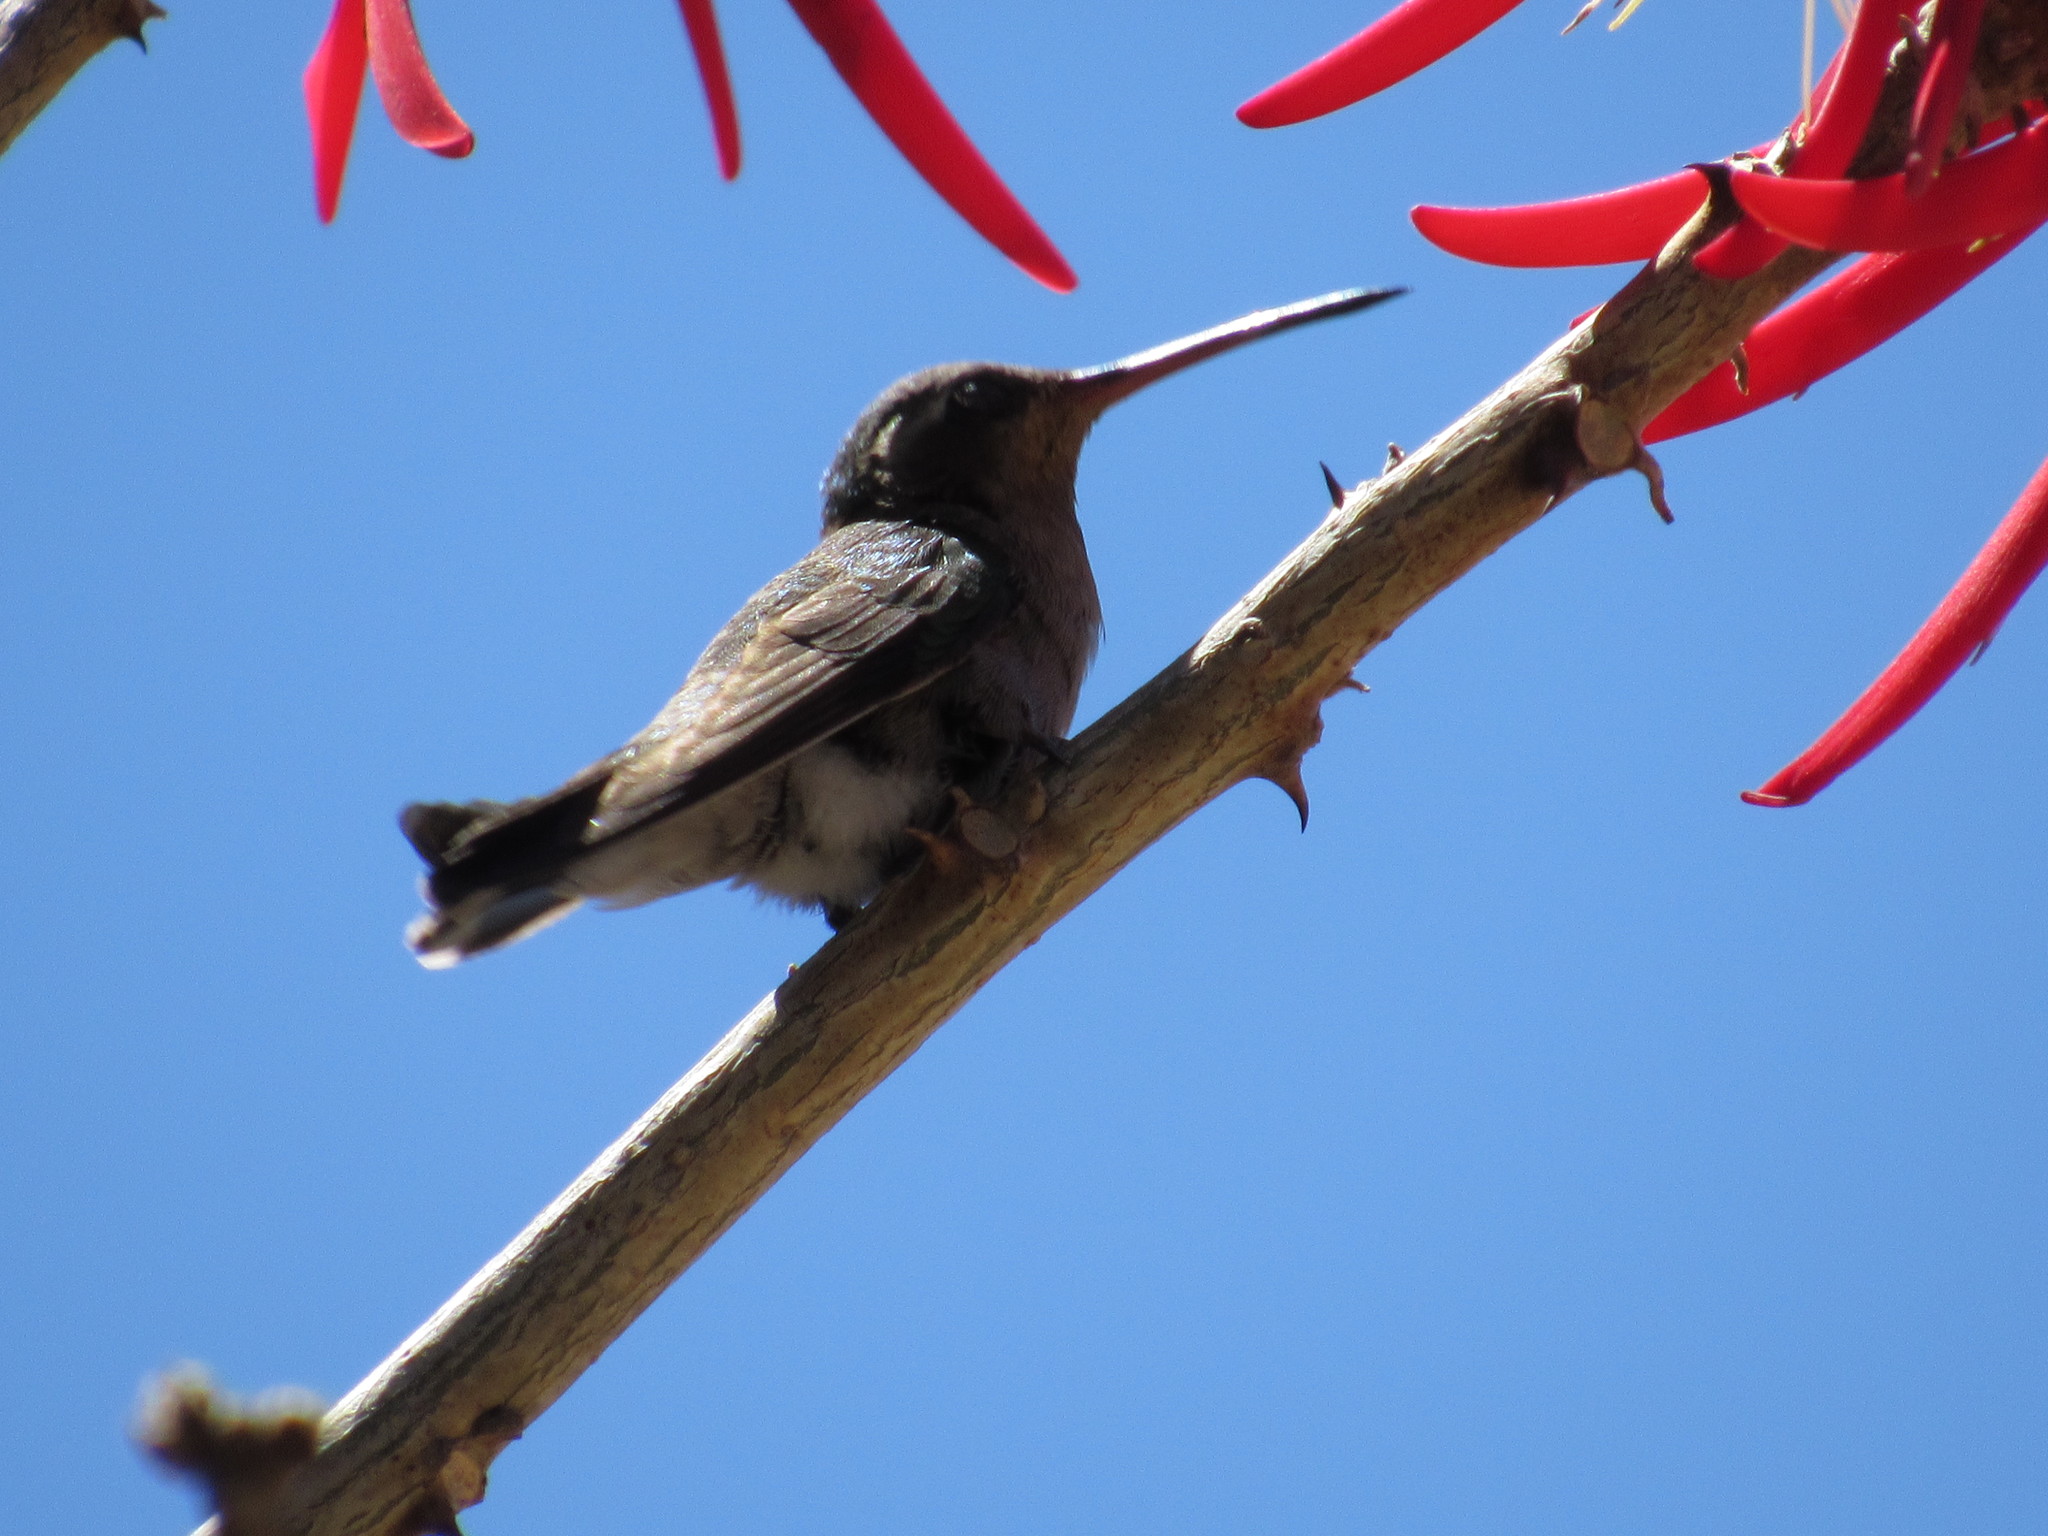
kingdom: Animalia
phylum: Chordata
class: Aves
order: Apodiformes
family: Trochilidae
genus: Cynanthus
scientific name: Cynanthus latirostris
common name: Broad-billed hummingbird
